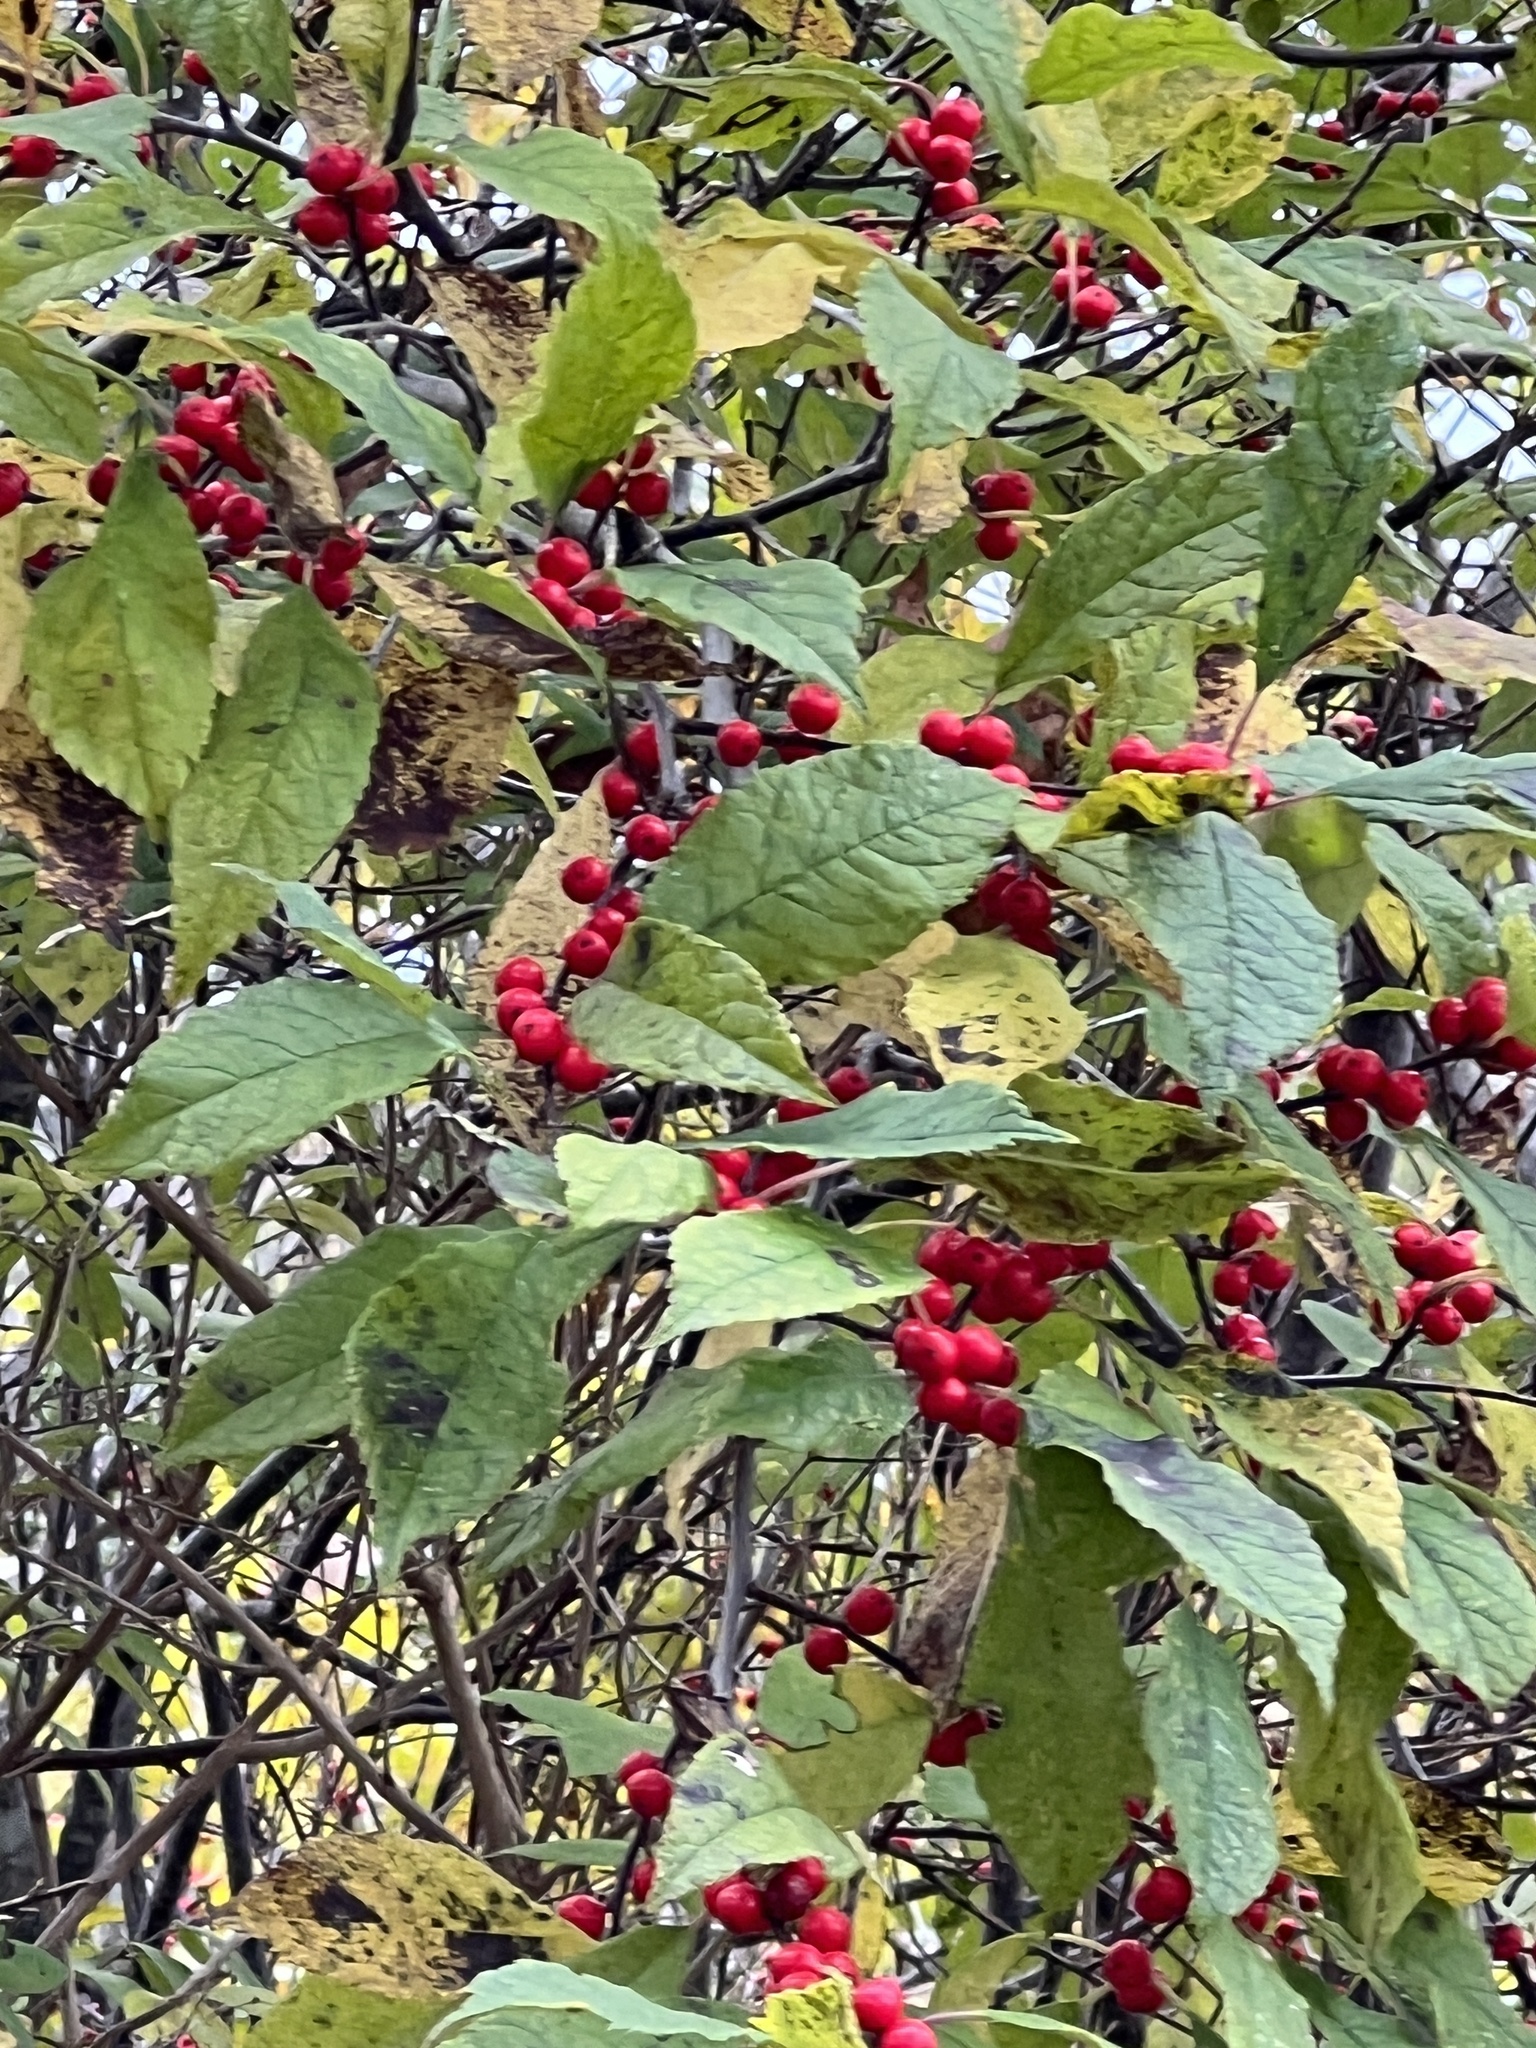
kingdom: Plantae
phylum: Tracheophyta
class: Magnoliopsida
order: Aquifoliales
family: Aquifoliaceae
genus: Ilex
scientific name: Ilex verticillata
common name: Virginia winterberry
